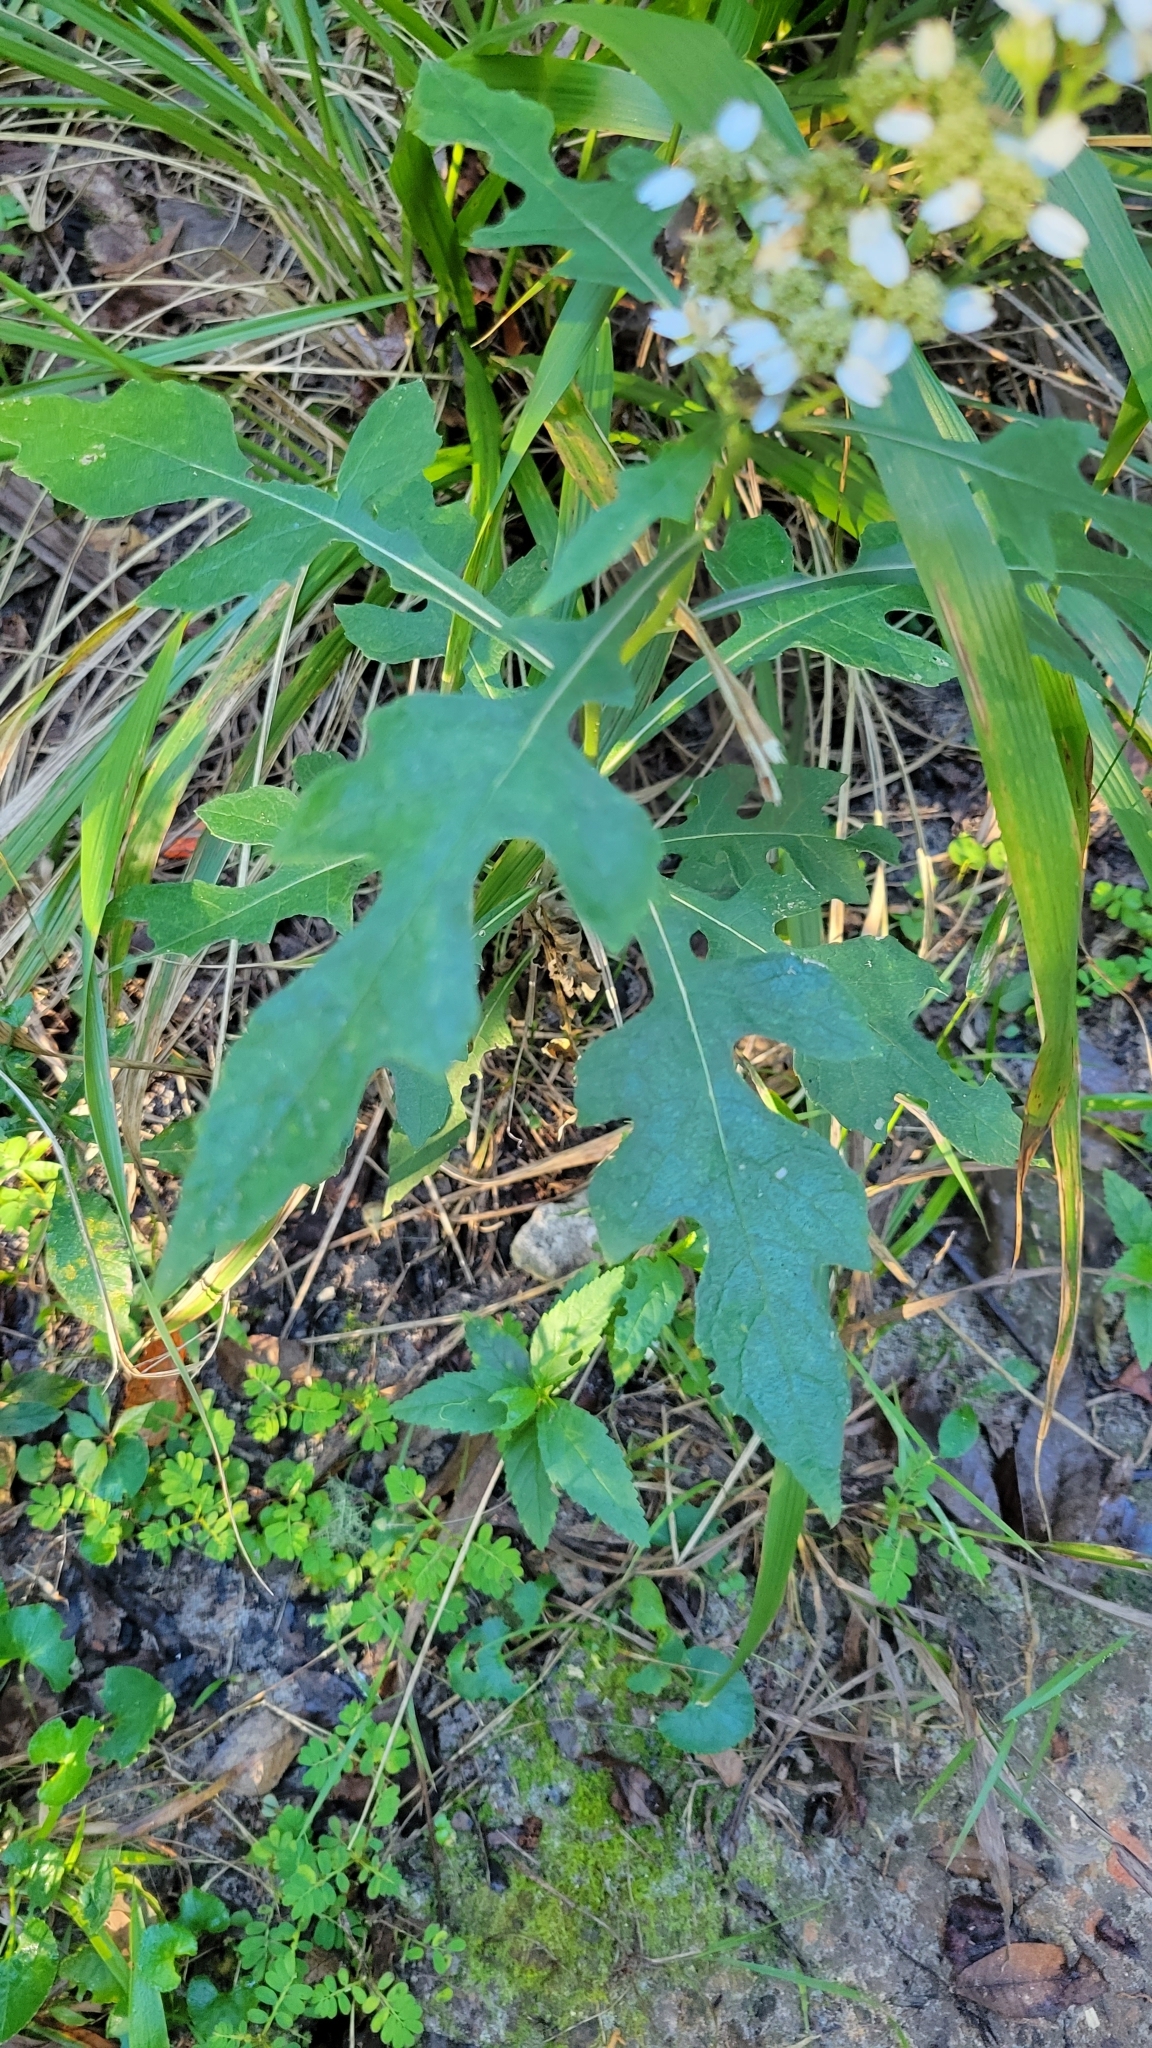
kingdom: Plantae
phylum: Tracheophyta
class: Magnoliopsida
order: Asterales
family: Asteraceae
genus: Verbesina
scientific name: Verbesina virginica
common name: Frostweed
